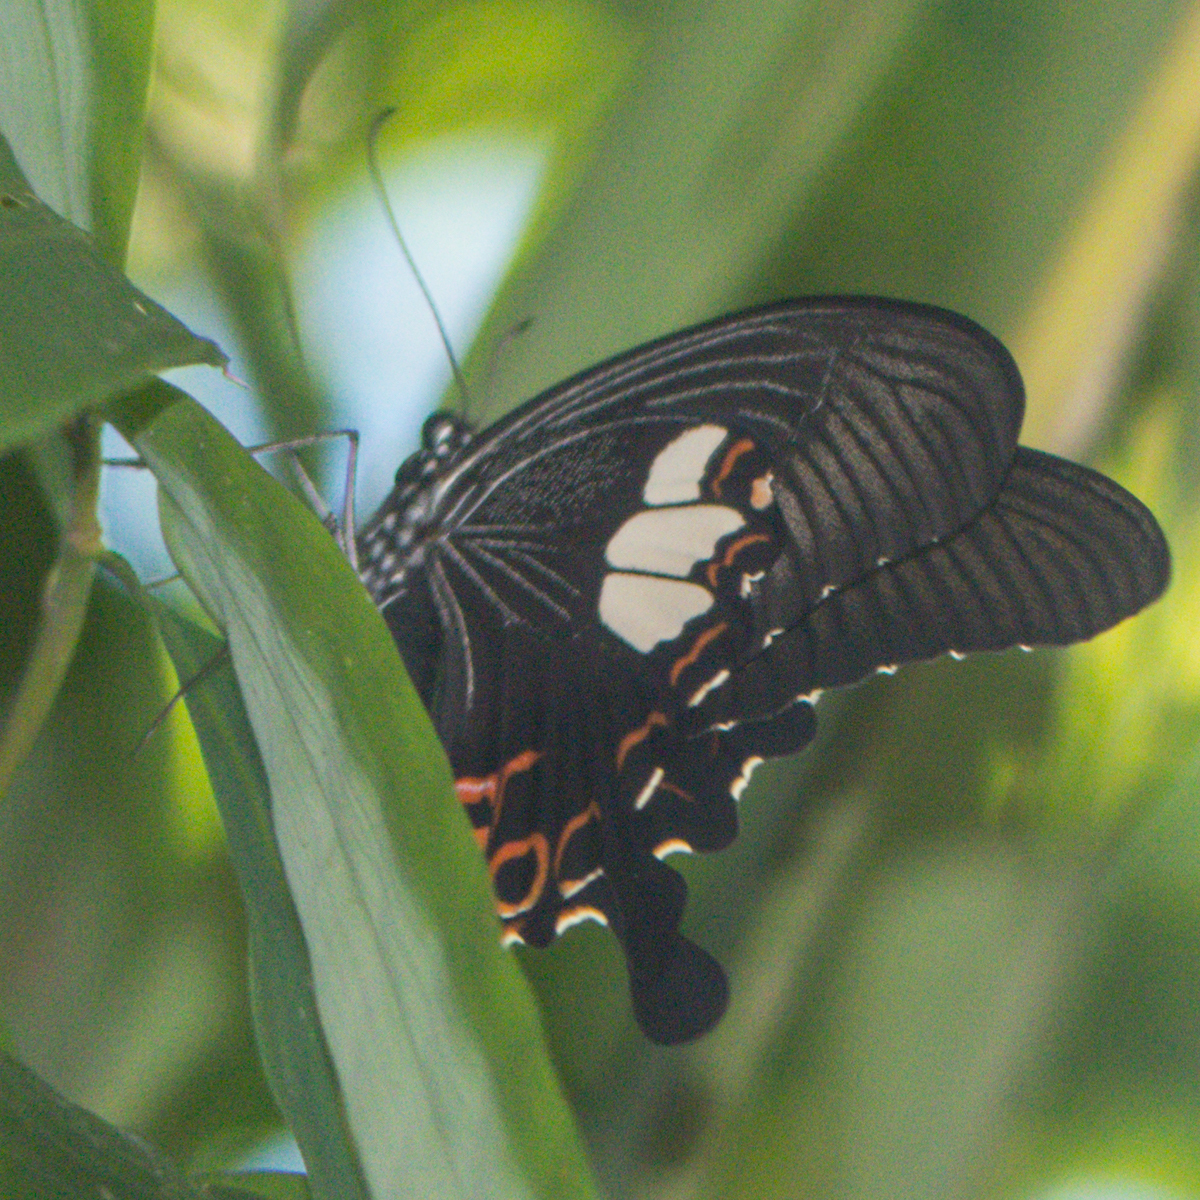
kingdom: Animalia
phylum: Arthropoda
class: Insecta
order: Lepidoptera
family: Papilionidae
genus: Papilio
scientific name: Papilio helenus
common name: Red helen
